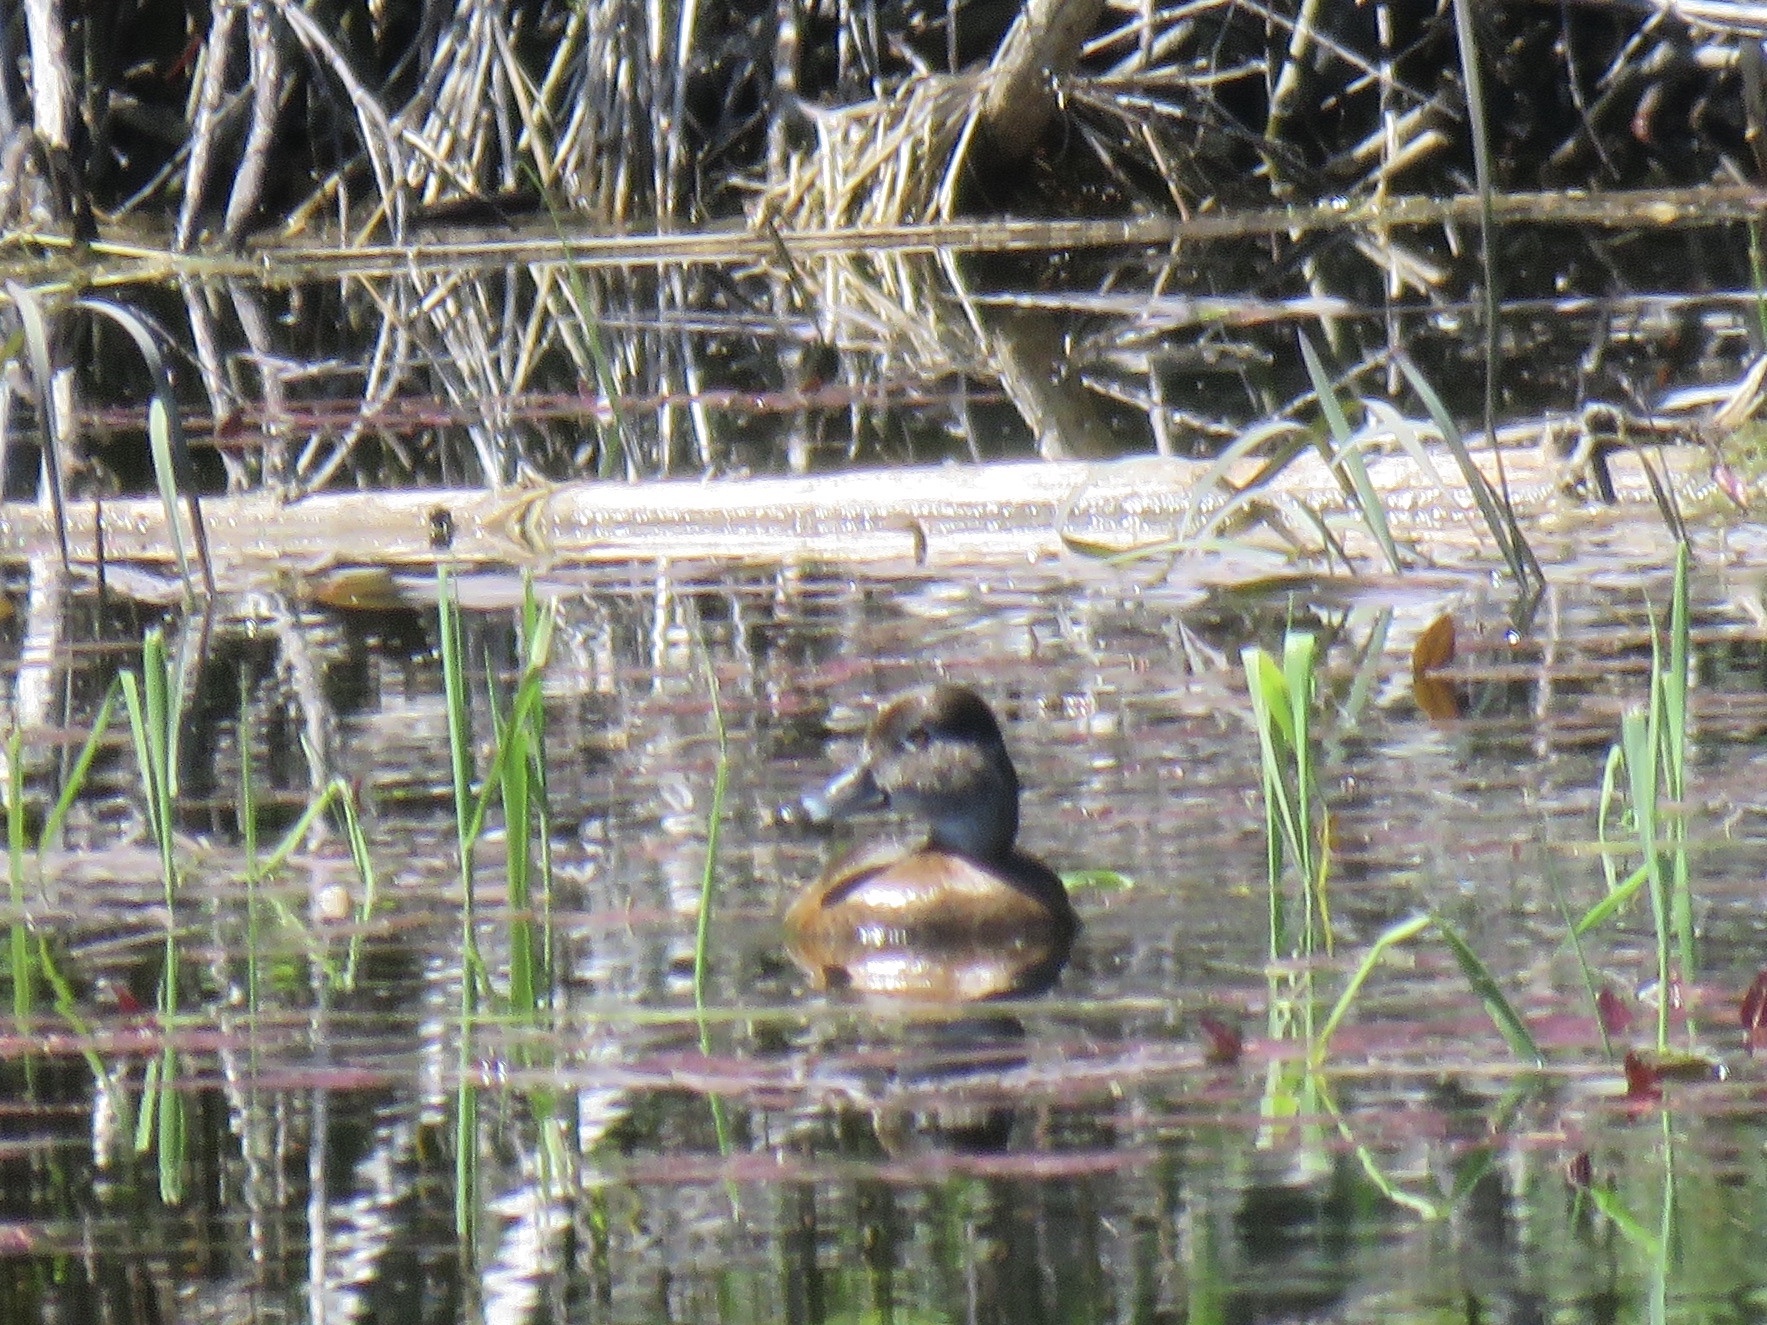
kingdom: Animalia
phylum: Chordata
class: Aves
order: Anseriformes
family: Anatidae
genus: Aythya
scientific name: Aythya collaris
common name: Ring-necked duck
